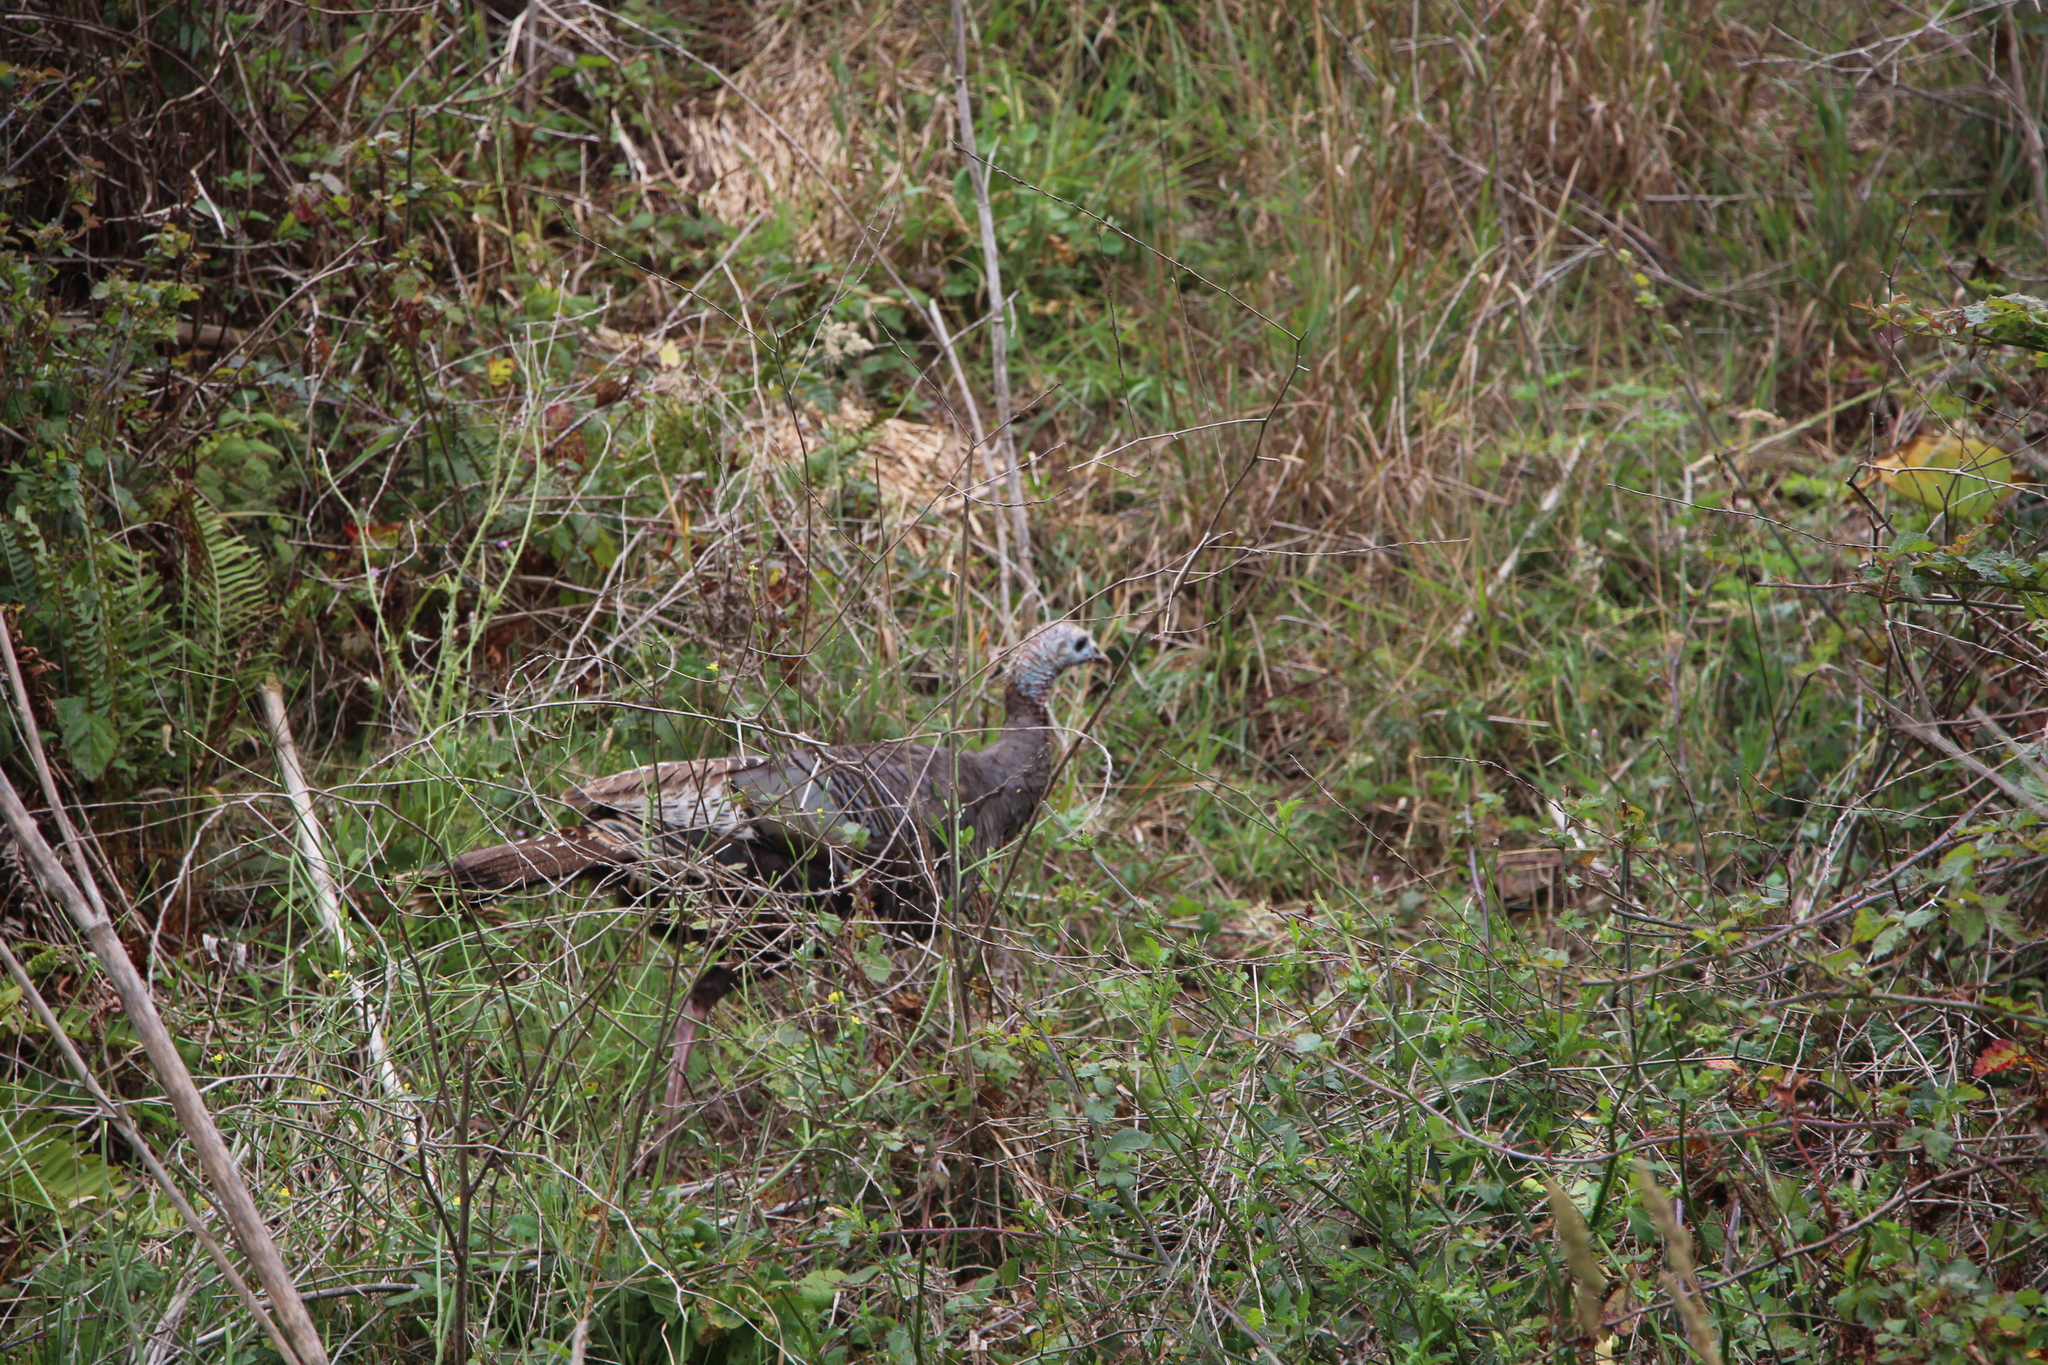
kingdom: Animalia
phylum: Chordata
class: Aves
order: Galliformes
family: Phasianidae
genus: Meleagris
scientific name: Meleagris gallopavo
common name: Wild turkey
